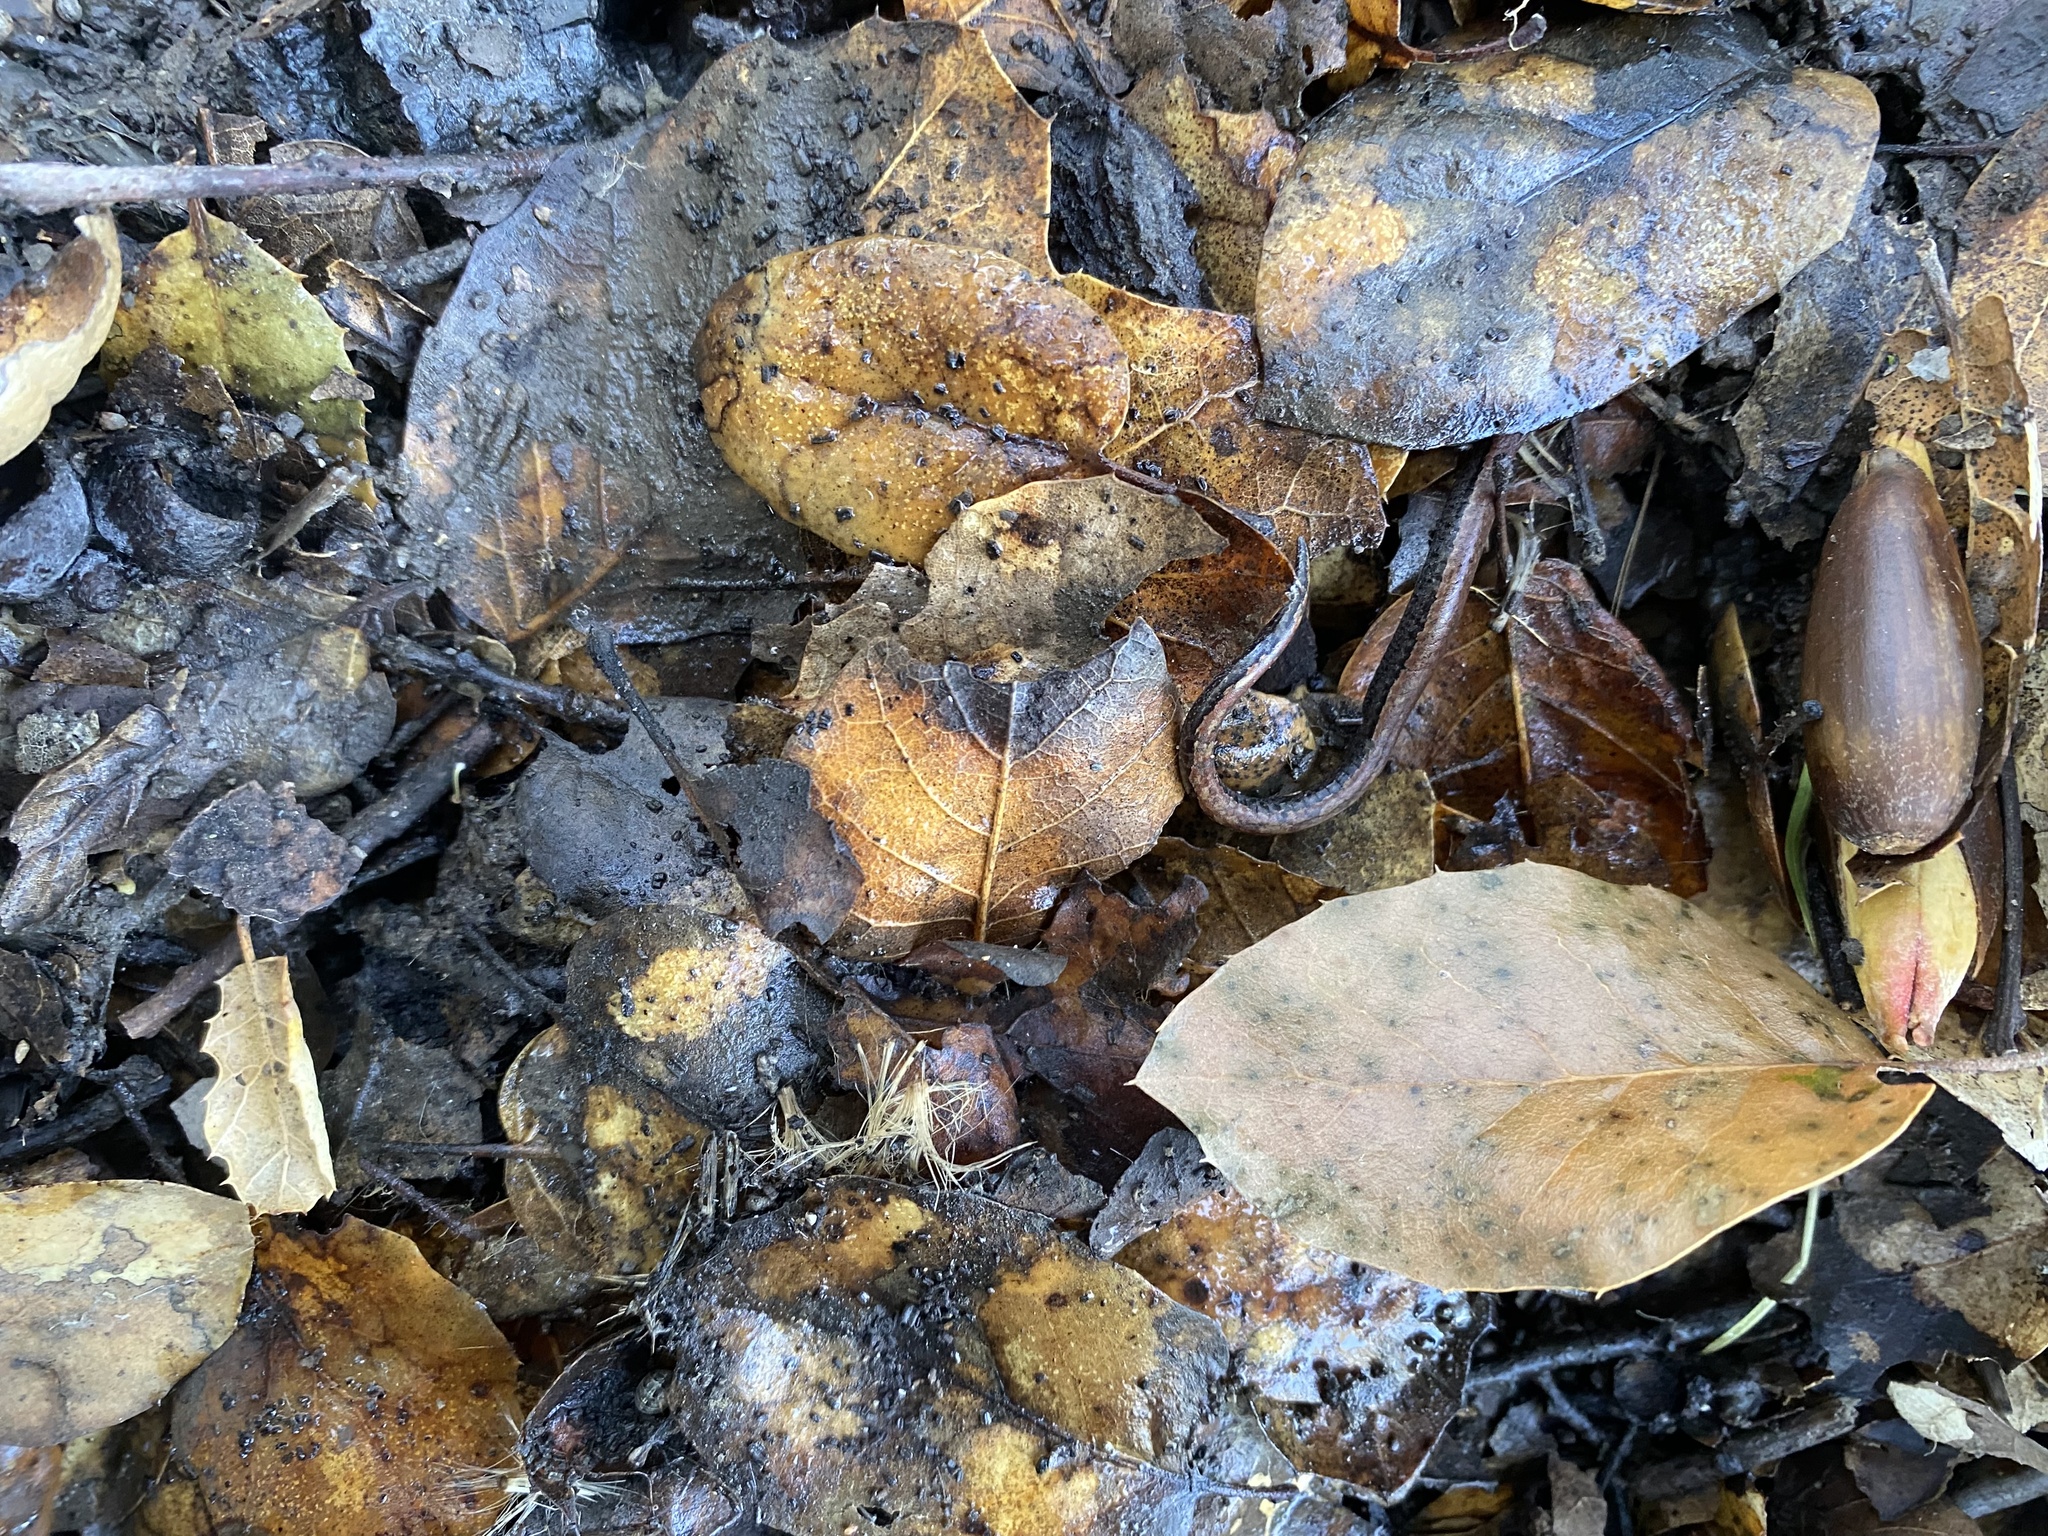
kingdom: Animalia
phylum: Chordata
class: Amphibia
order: Caudata
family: Plethodontidae
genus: Batrachoseps
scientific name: Batrachoseps attenuatus
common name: California slender salamander
